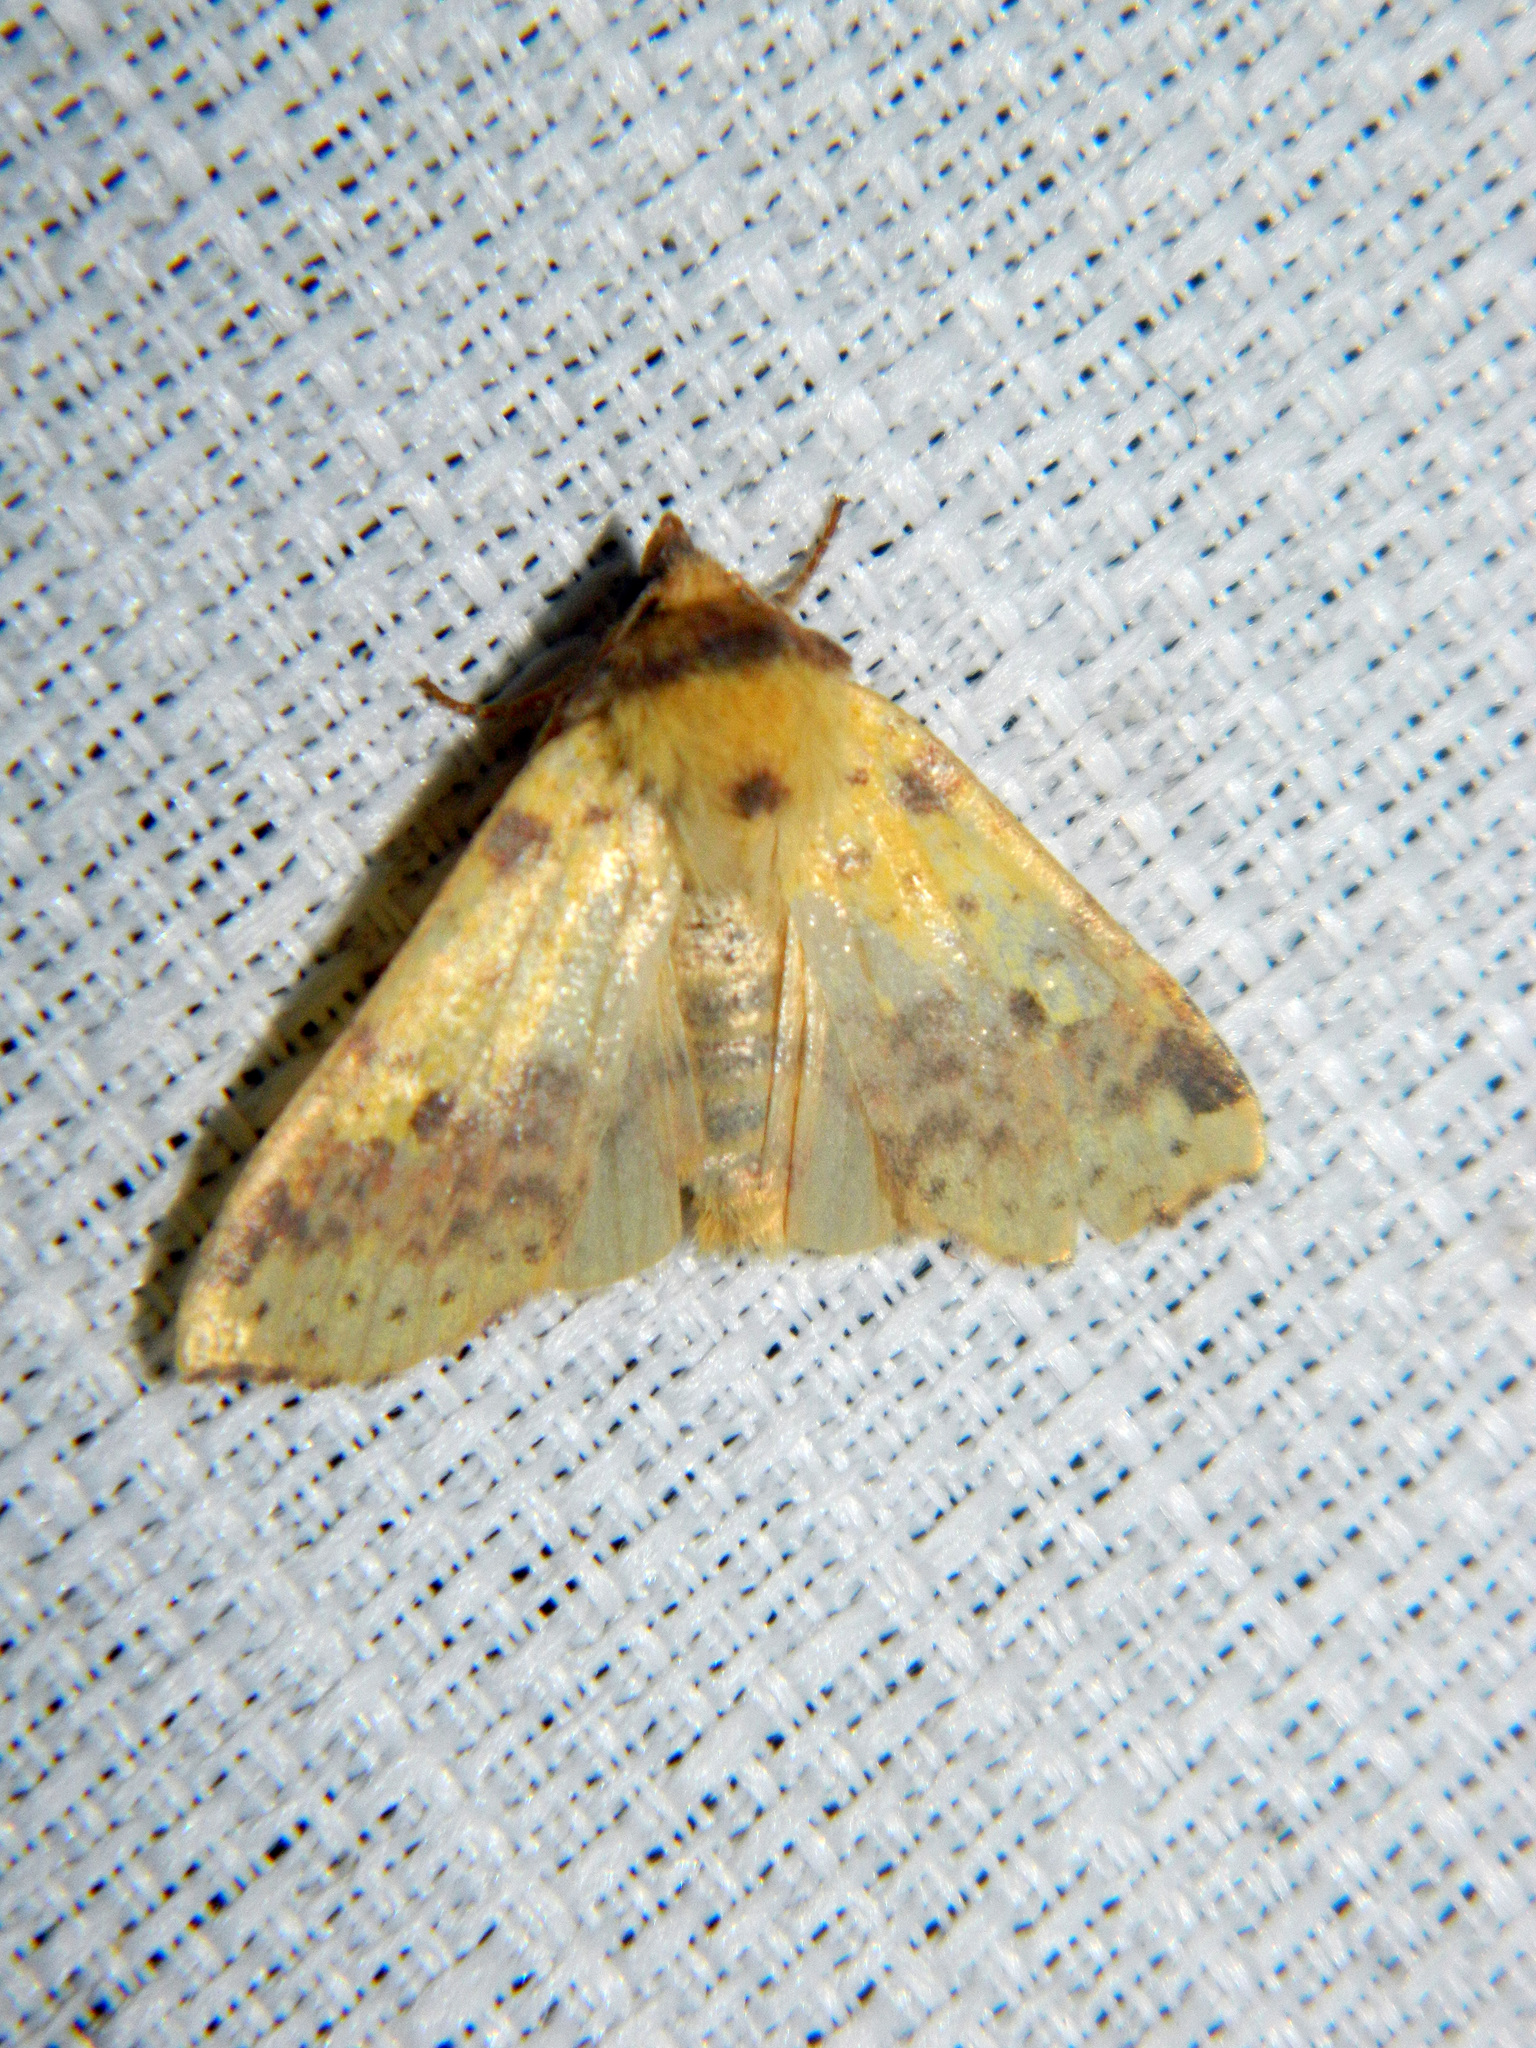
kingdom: Animalia
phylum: Arthropoda
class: Insecta
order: Lepidoptera
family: Noctuidae
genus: Xanthia
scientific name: Xanthia tatago
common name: Pink-banded sallow
